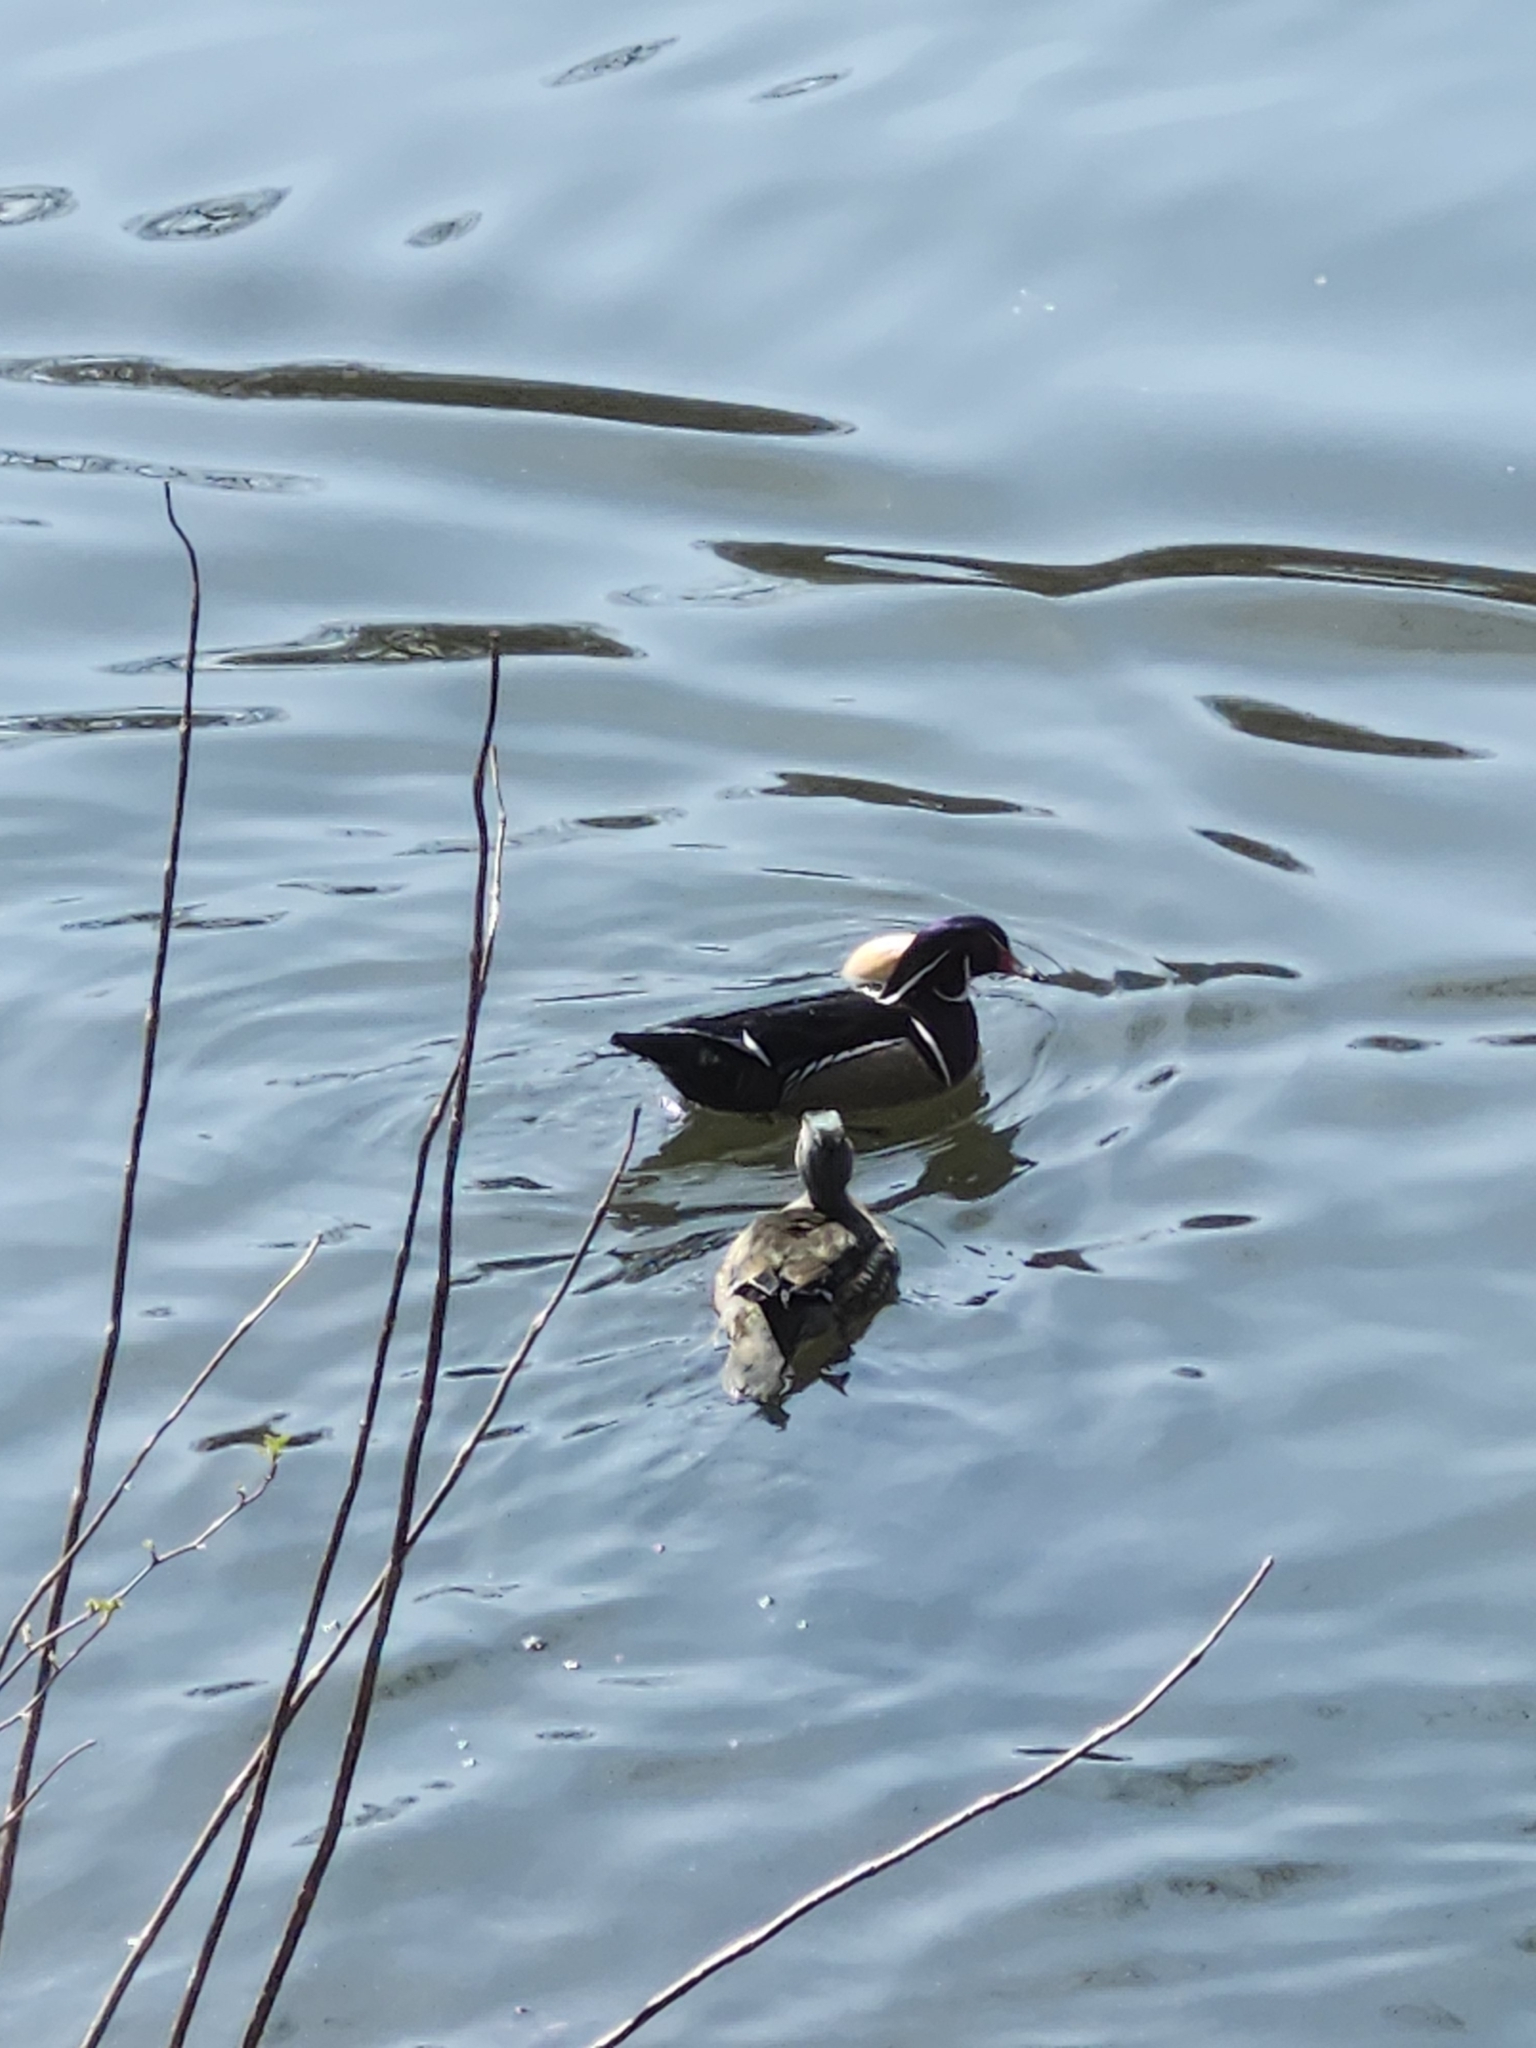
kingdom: Animalia
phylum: Chordata
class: Aves
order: Anseriformes
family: Anatidae
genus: Aix
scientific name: Aix sponsa
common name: Wood duck
